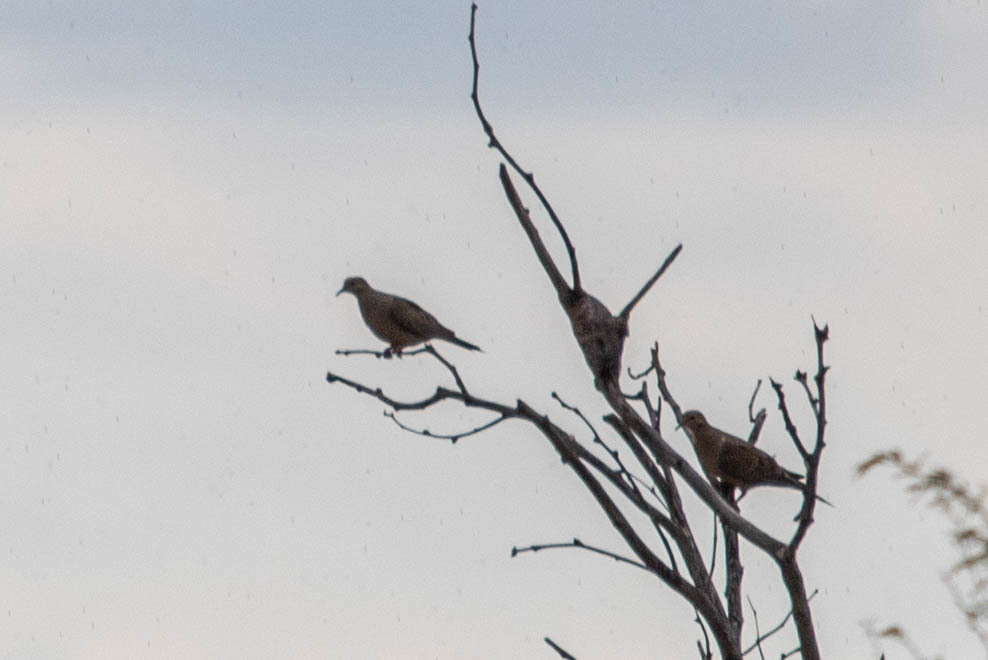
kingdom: Animalia
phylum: Chordata
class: Aves
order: Columbiformes
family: Columbidae
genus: Zenaida
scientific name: Zenaida macroura
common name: Mourning dove
